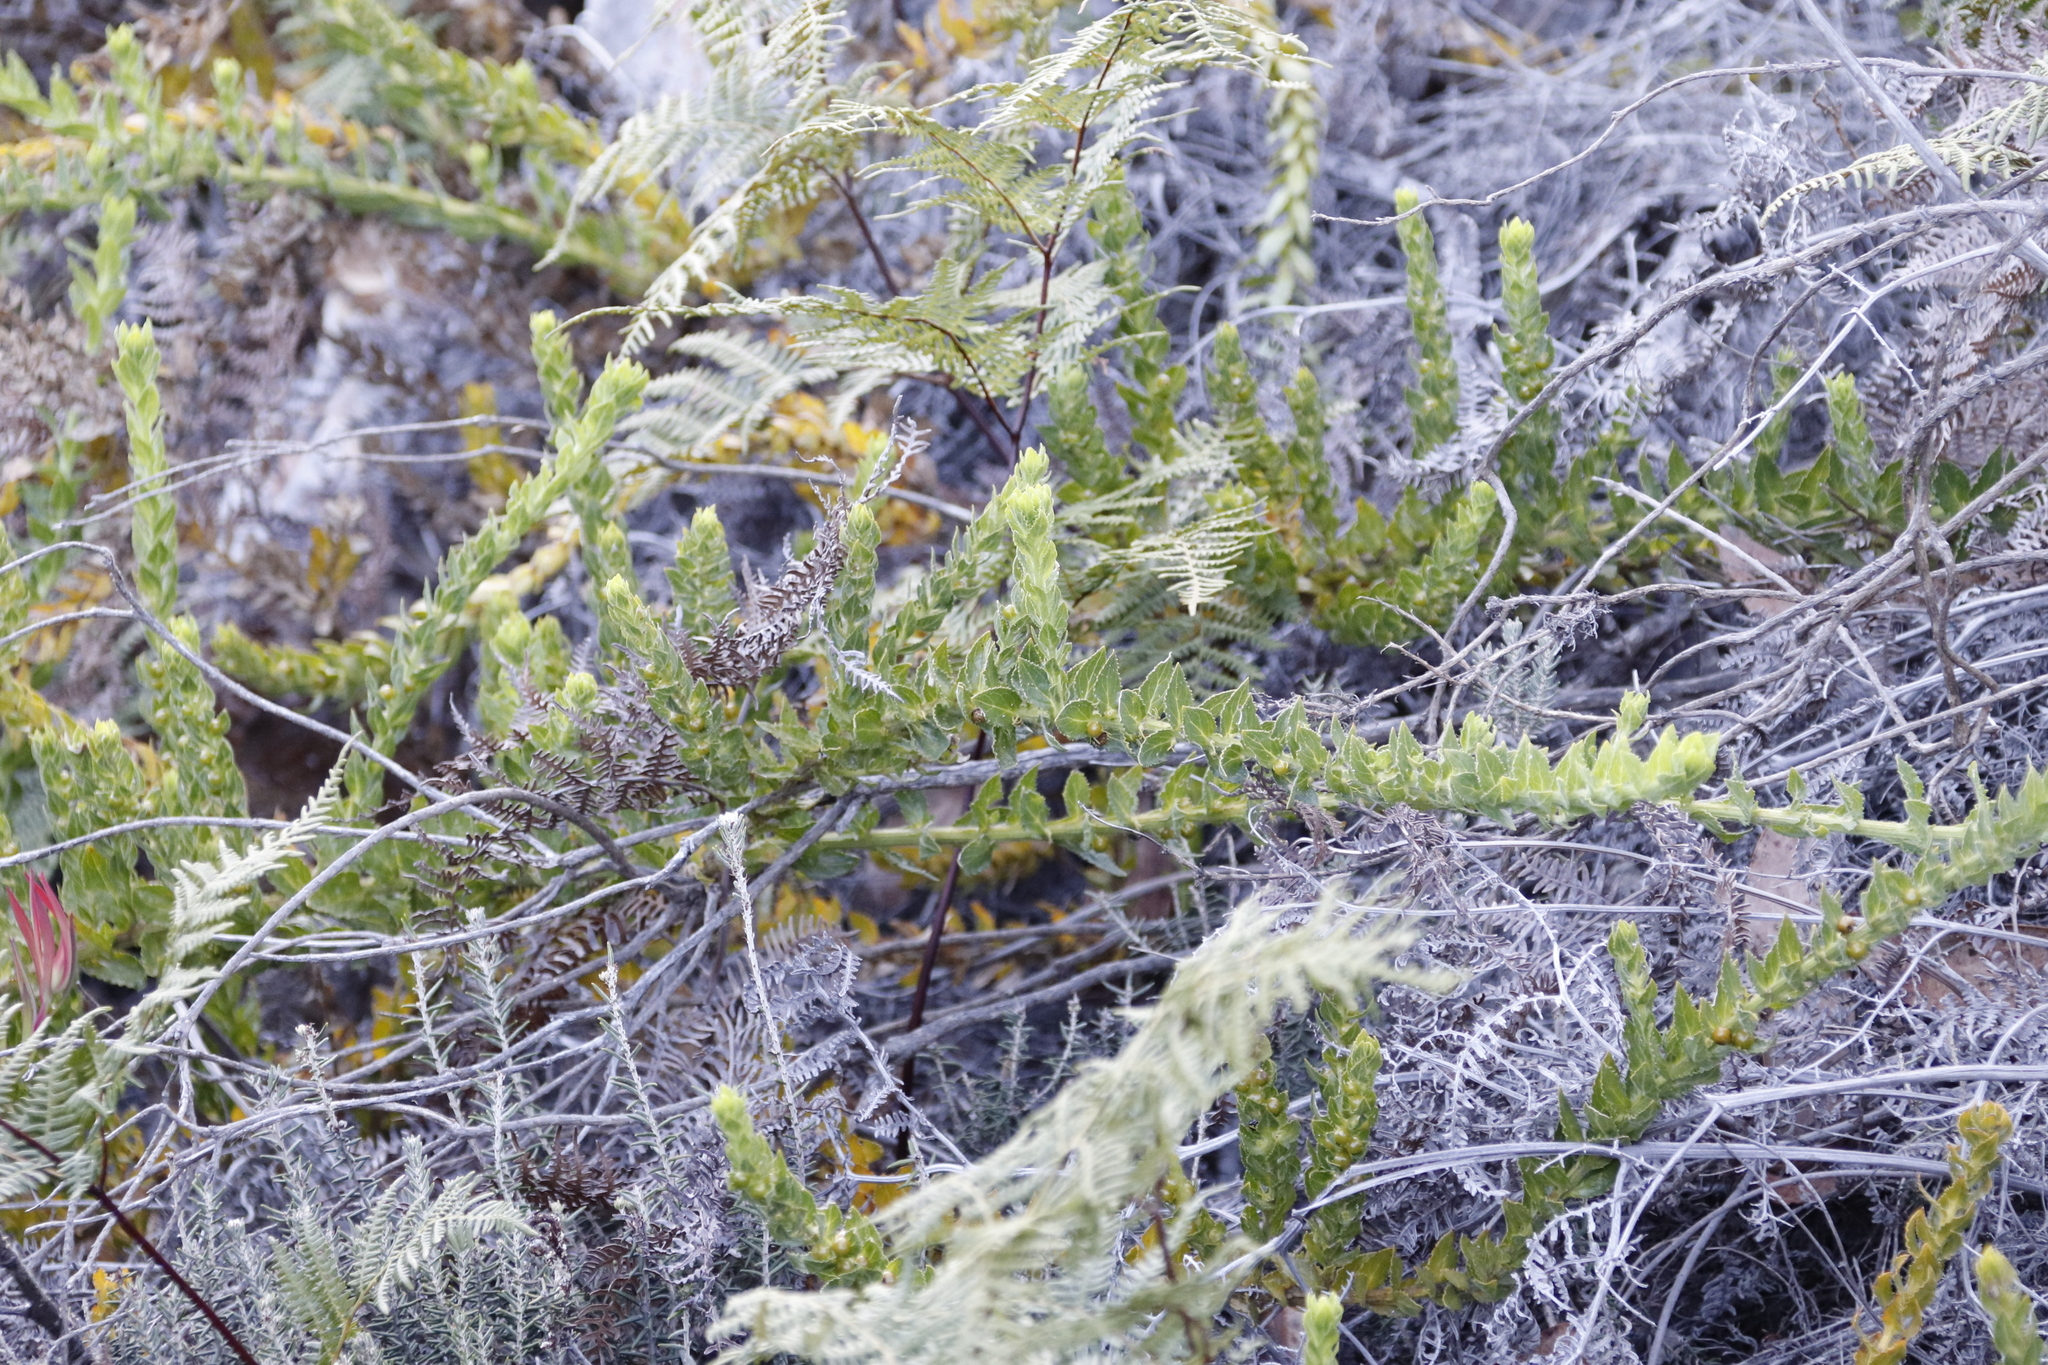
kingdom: Plantae
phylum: Tracheophyta
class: Magnoliopsida
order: Lamiales
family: Scrophulariaceae
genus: Oftia
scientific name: Oftia africana
